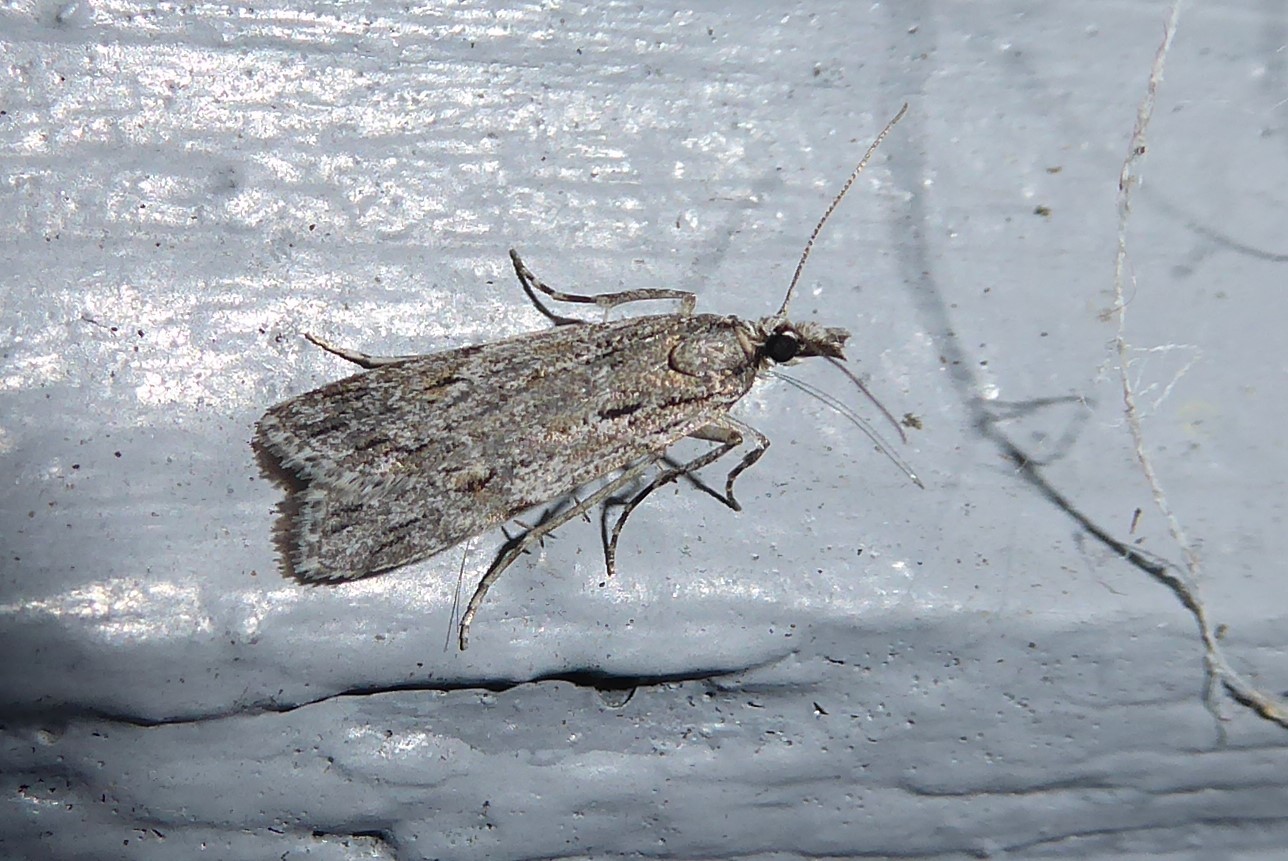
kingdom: Animalia
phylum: Arthropoda
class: Insecta
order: Lepidoptera
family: Crambidae
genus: Scoparia
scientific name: Scoparia chalicodes
